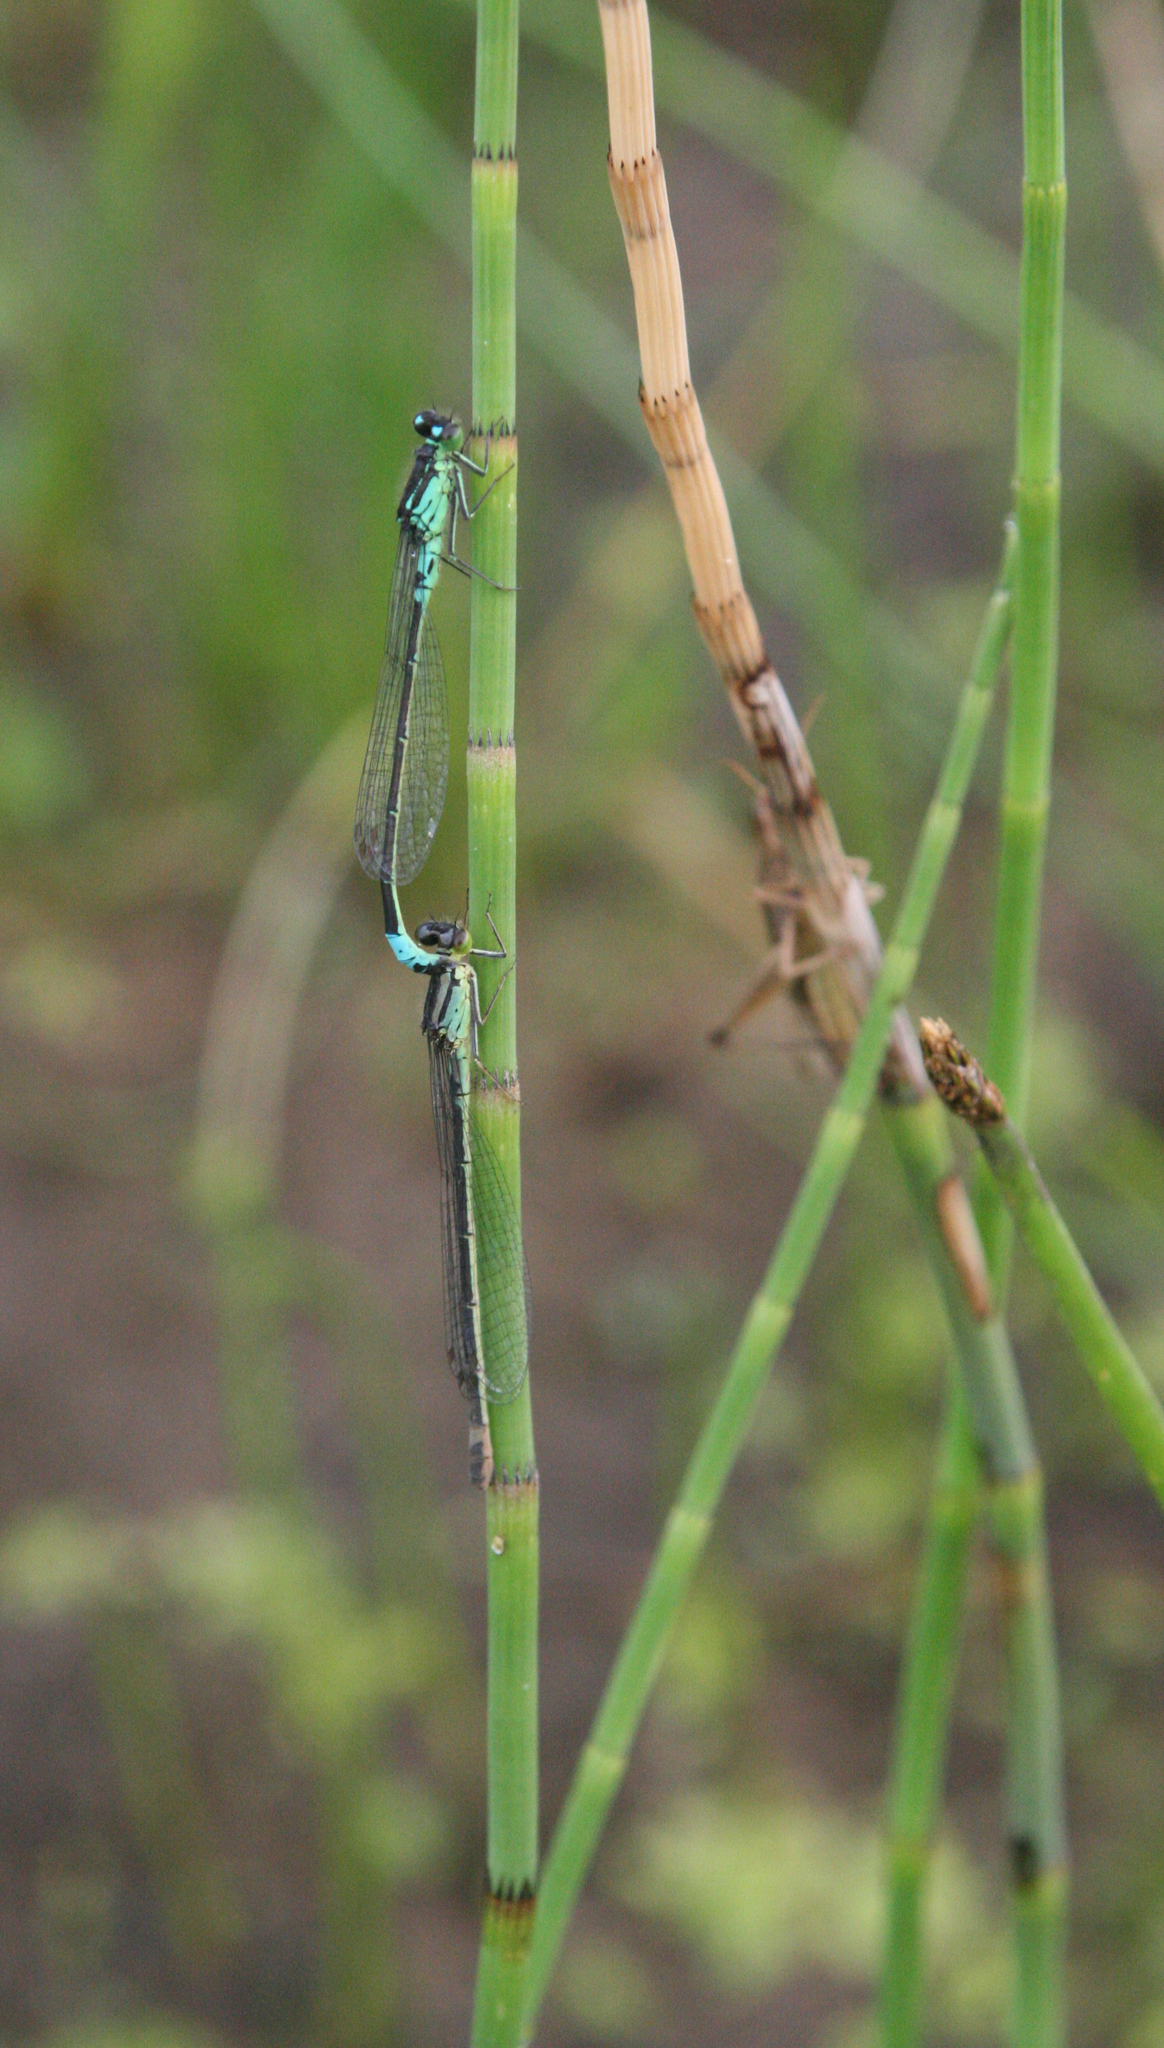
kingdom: Plantae
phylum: Tracheophyta
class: Polypodiopsida
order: Equisetales
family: Equisetaceae
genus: Equisetum
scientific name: Equisetum fluviatile
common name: Water horsetail
